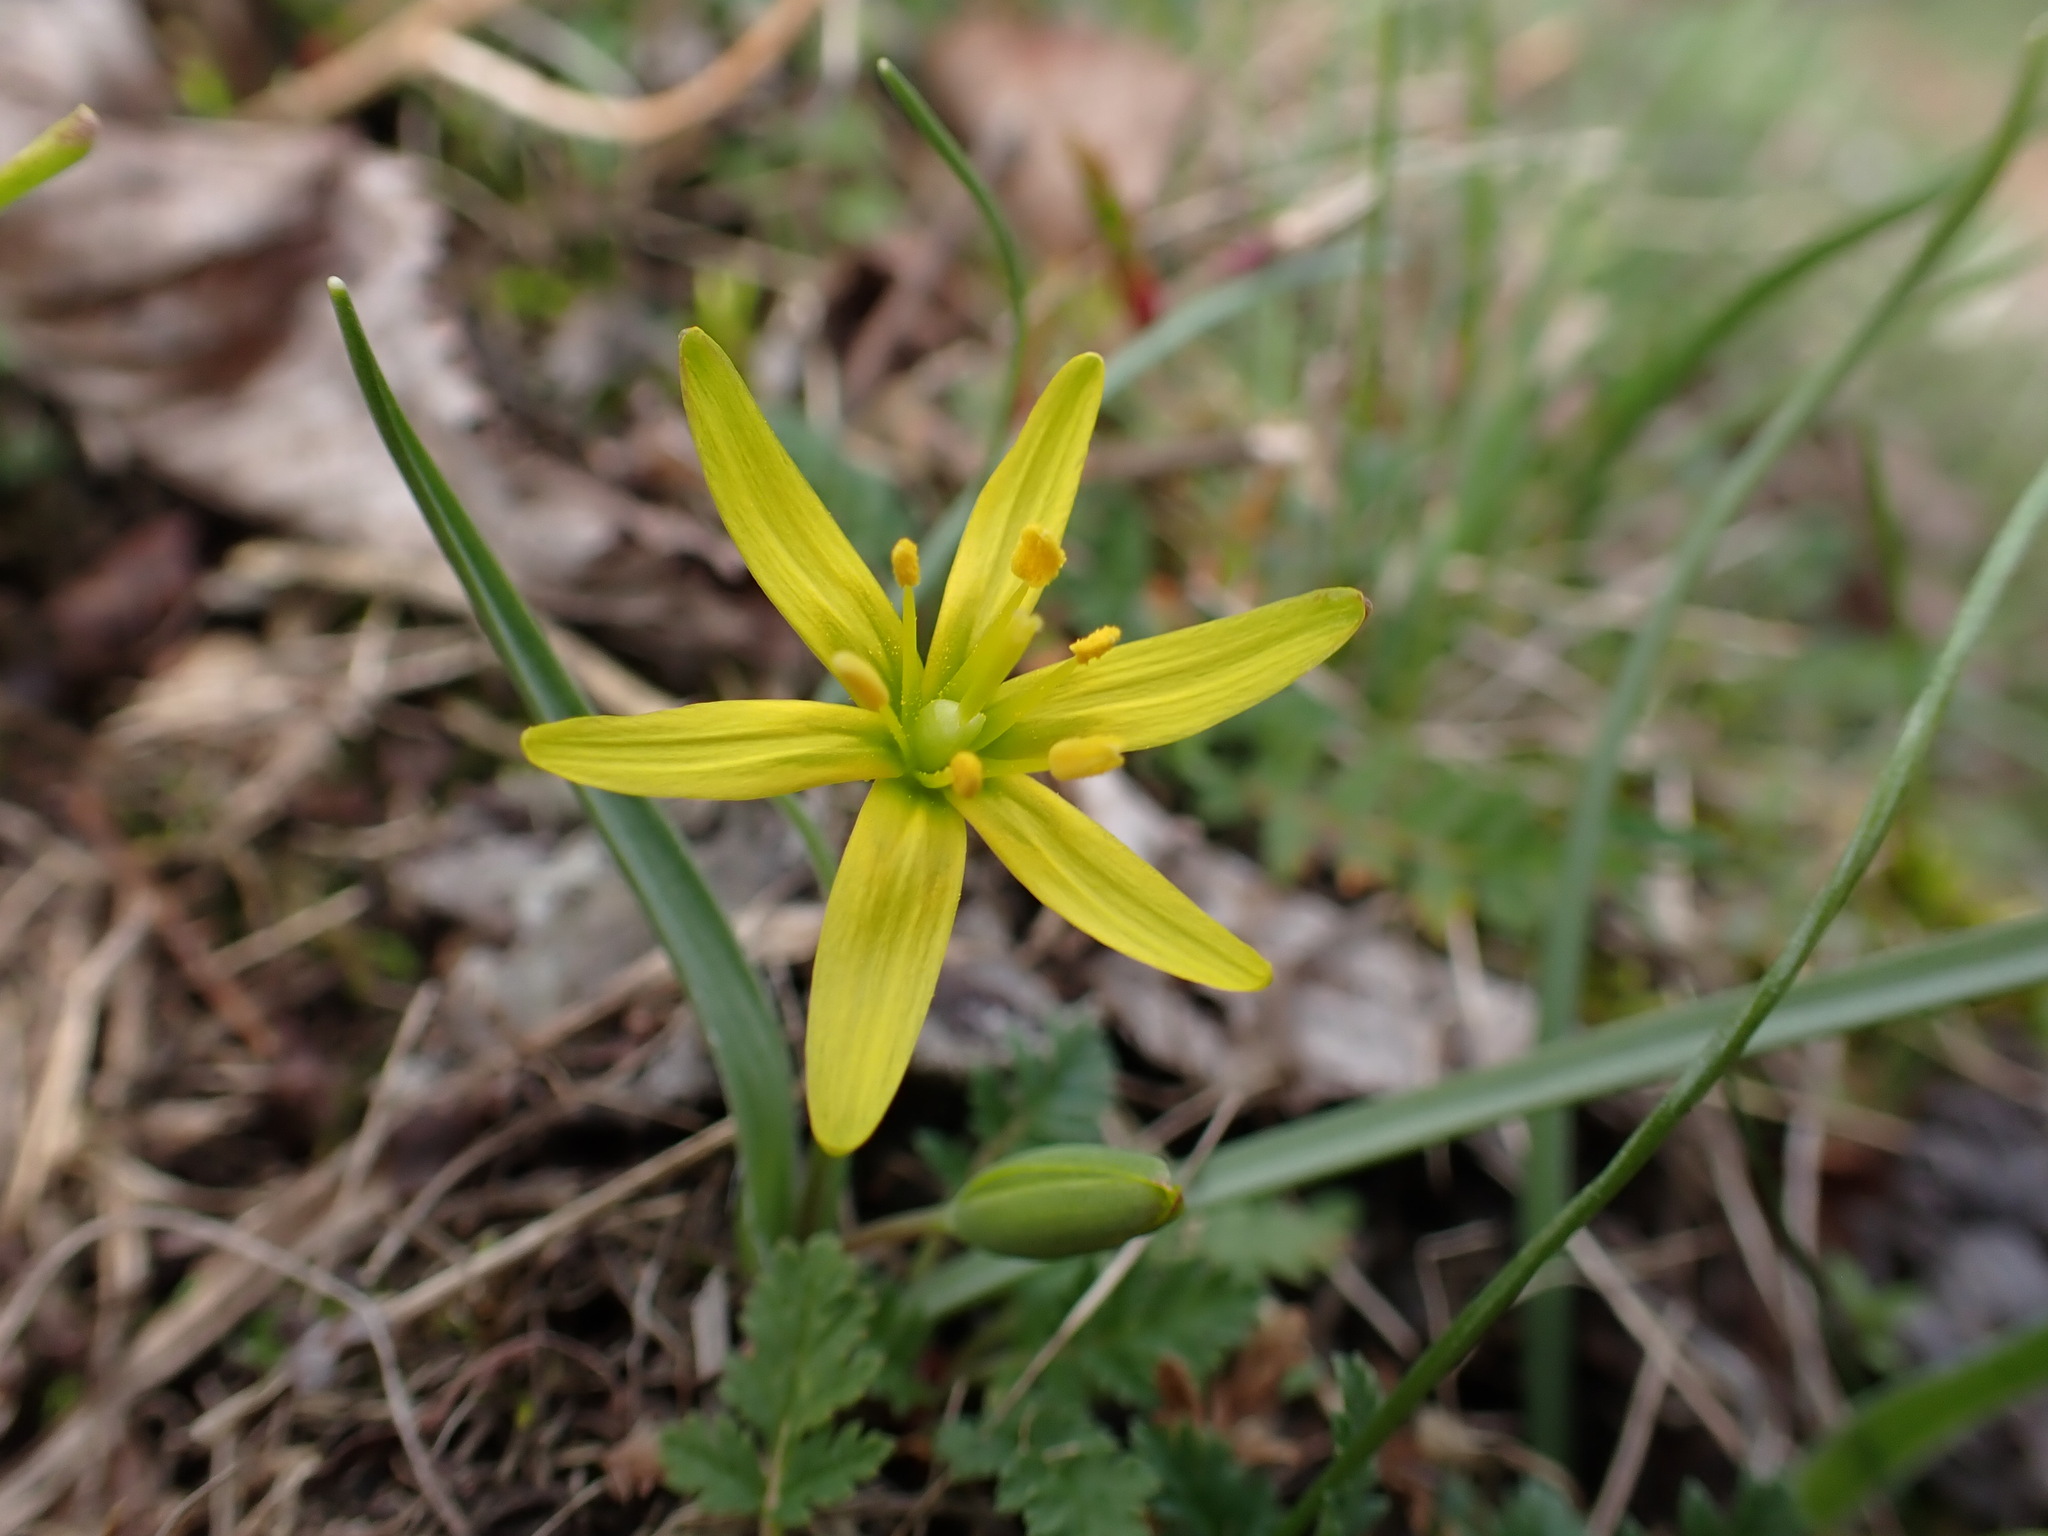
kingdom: Plantae
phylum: Tracheophyta
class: Liliopsida
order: Liliales
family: Liliaceae
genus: Gagea
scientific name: Gagea transversalis
